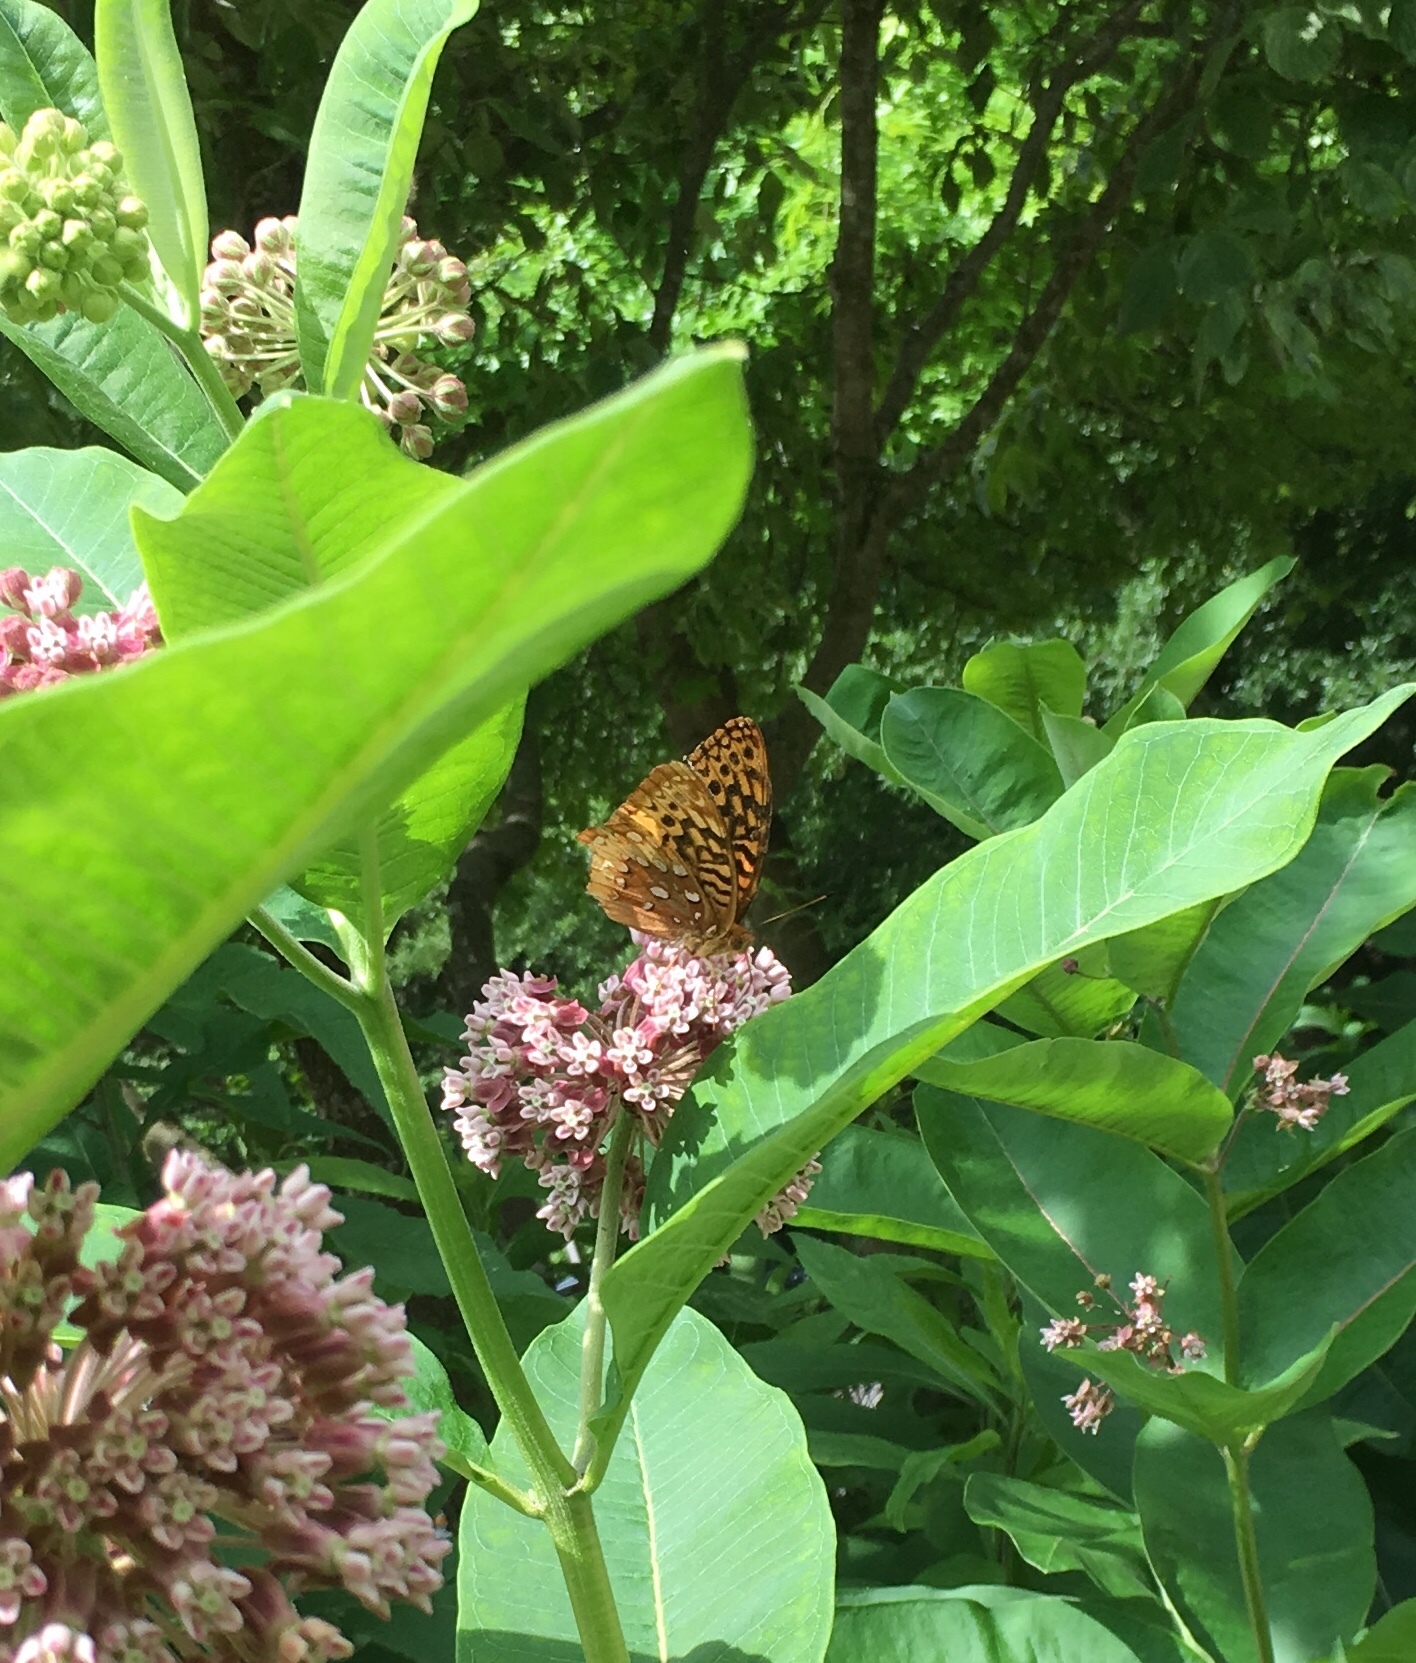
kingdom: Animalia
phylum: Arthropoda
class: Insecta
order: Lepidoptera
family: Nymphalidae
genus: Speyeria
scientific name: Speyeria cybele
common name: Great spangled fritillary
